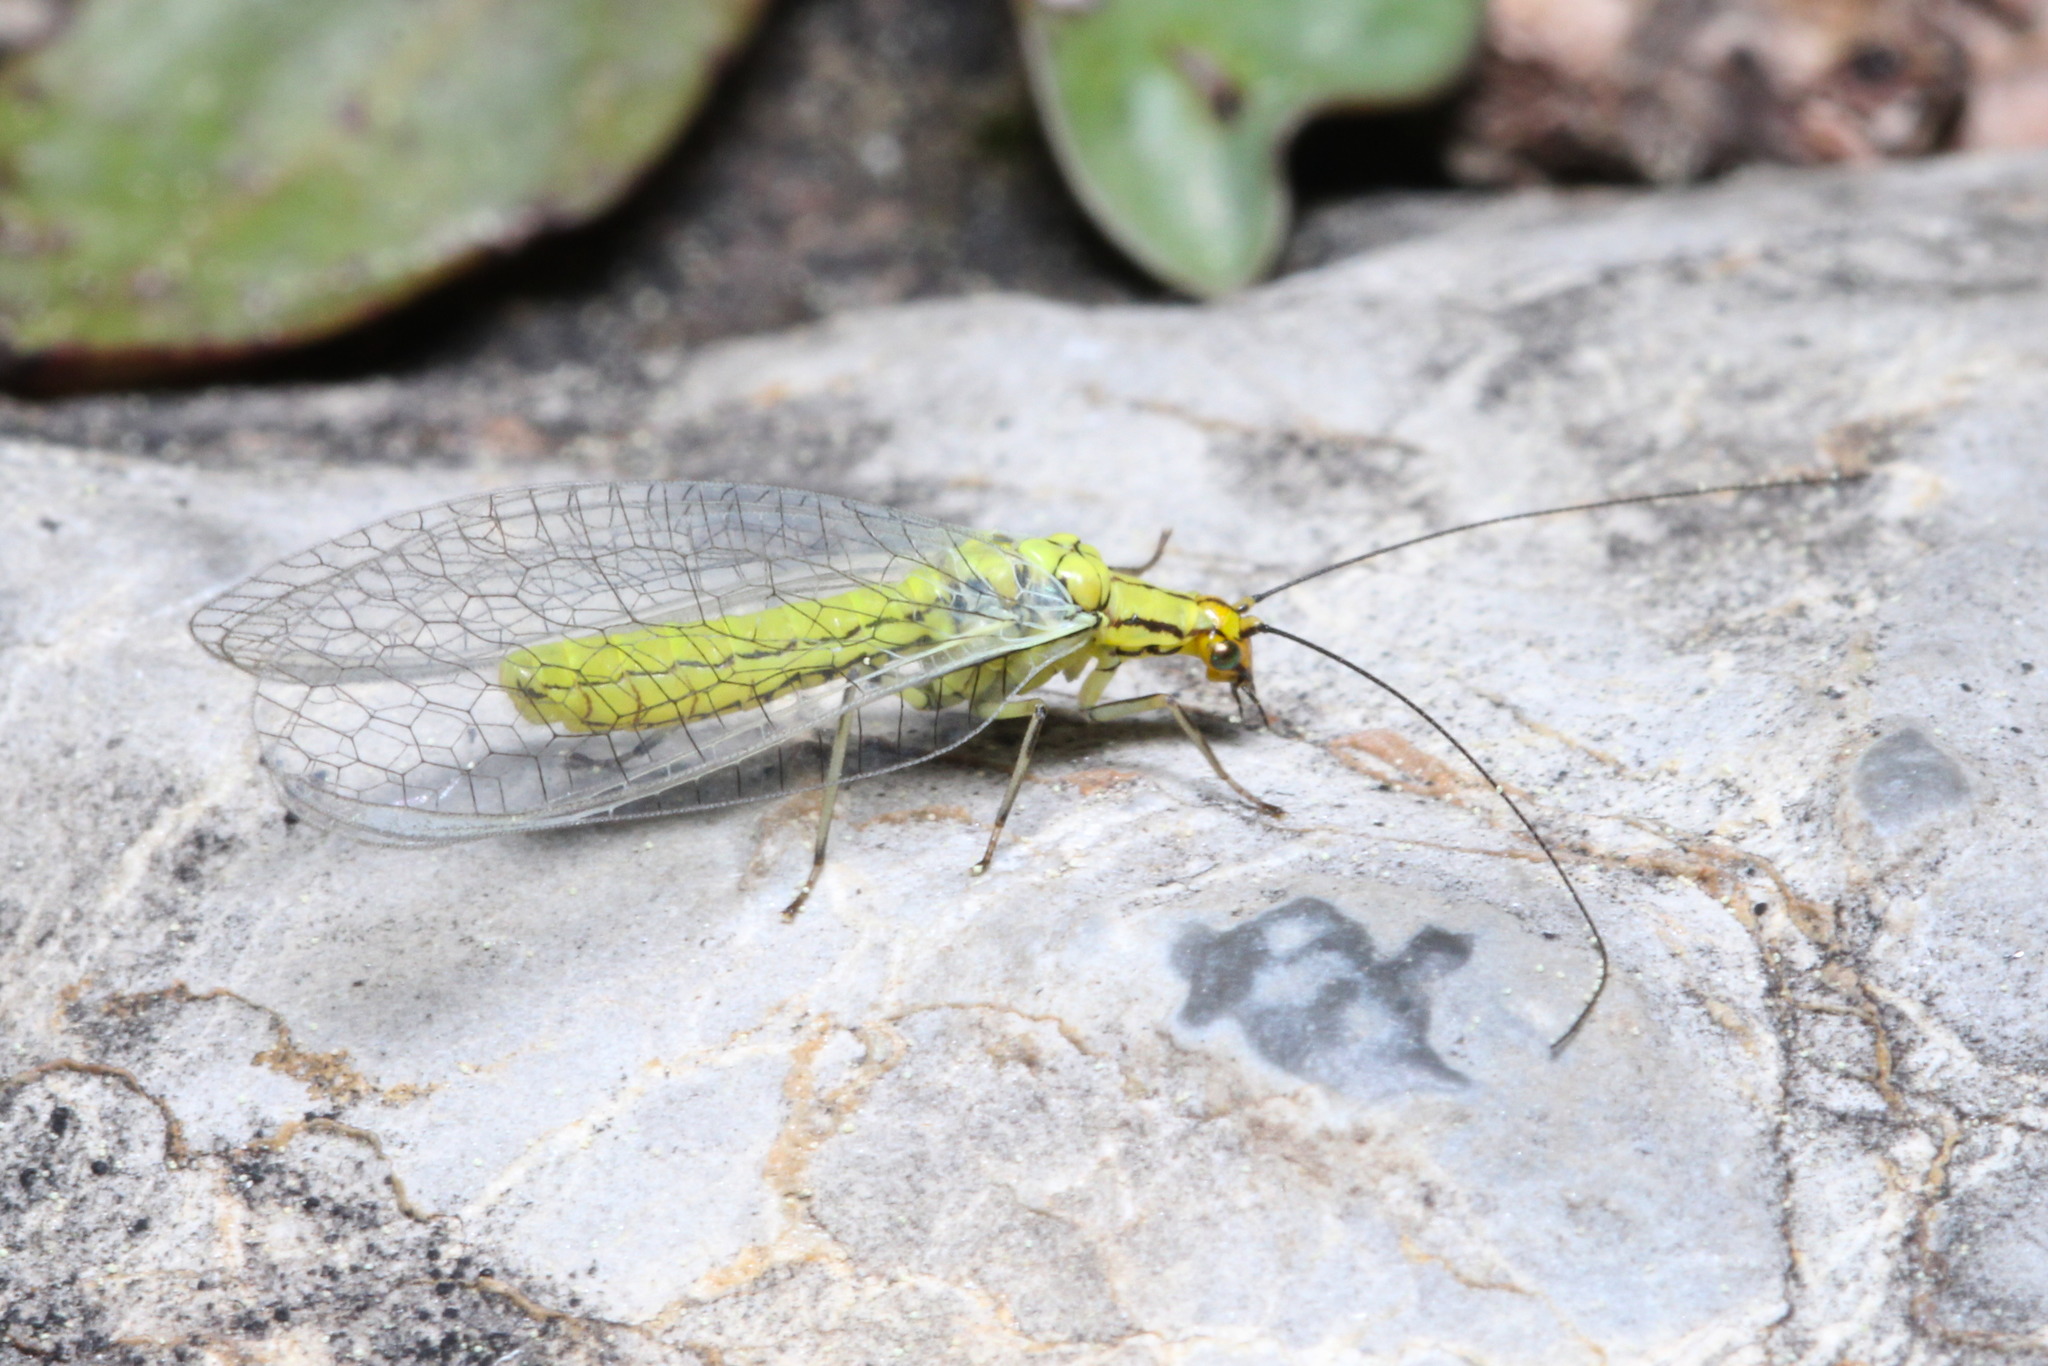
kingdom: Animalia
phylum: Arthropoda
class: Insecta
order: Neuroptera
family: Chrysopidae
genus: Hypochrysa
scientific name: Hypochrysa elegans
